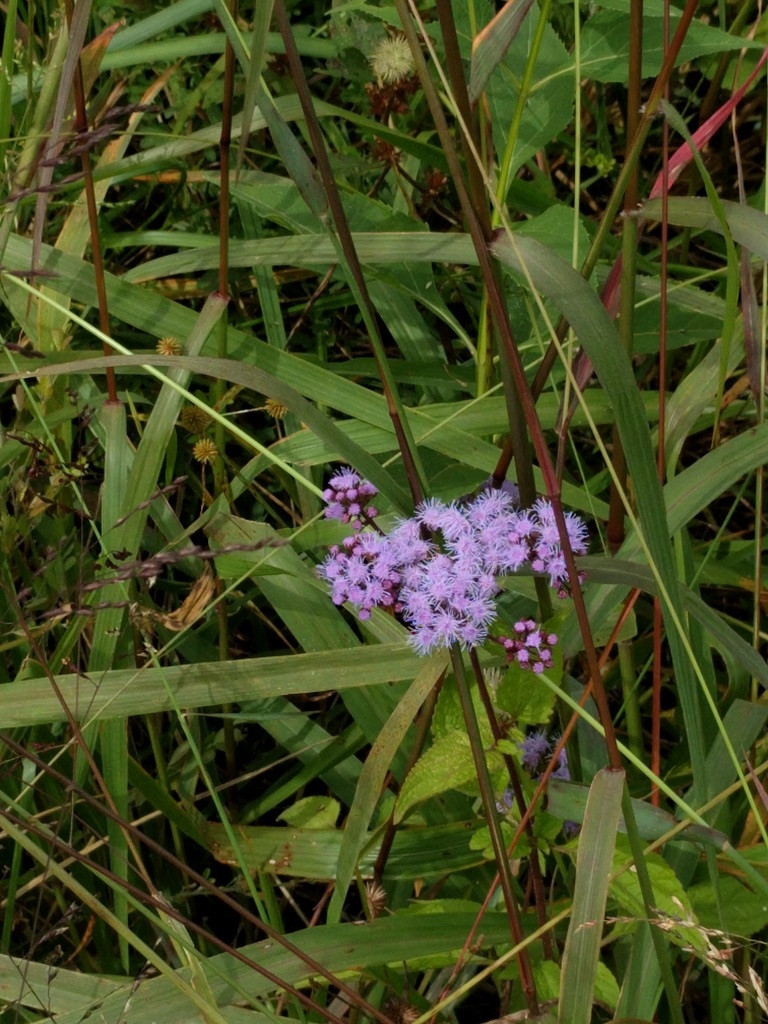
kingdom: Plantae
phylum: Tracheophyta
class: Magnoliopsida
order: Asterales
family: Asteraceae
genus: Conoclinium
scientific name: Conoclinium coelestinum
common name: Blue mistflower
